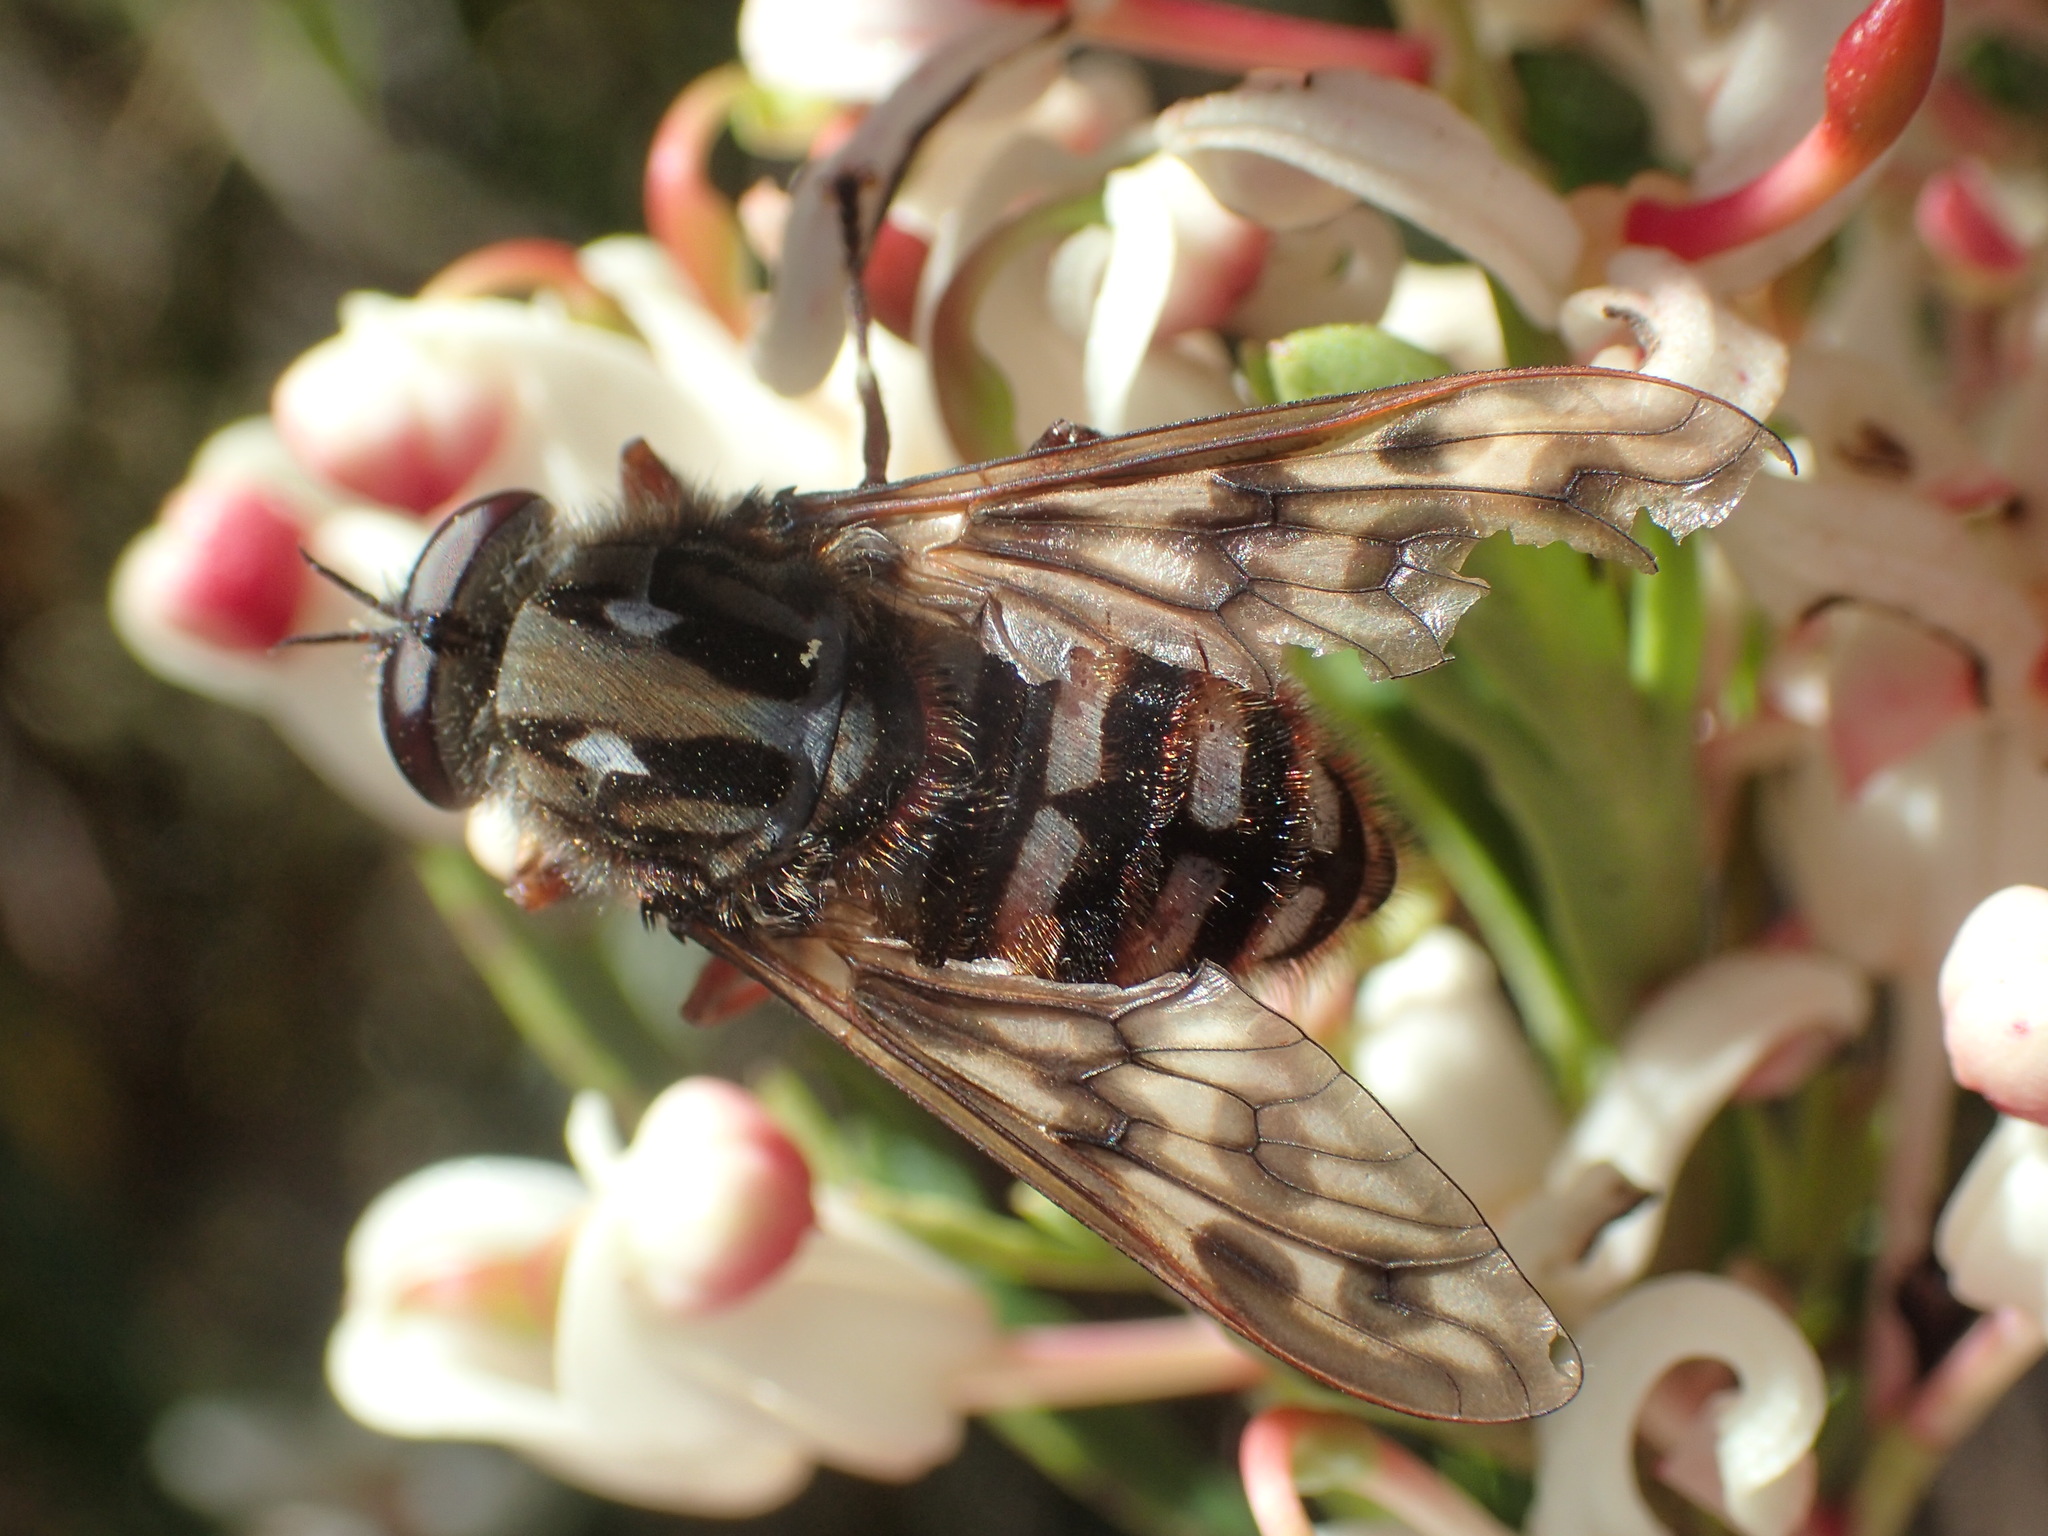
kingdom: Animalia
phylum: Arthropoda
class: Insecta
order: Diptera
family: Rhagionidae
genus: Pelecorhynchus
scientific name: Pelecorhynchus eristaloides
